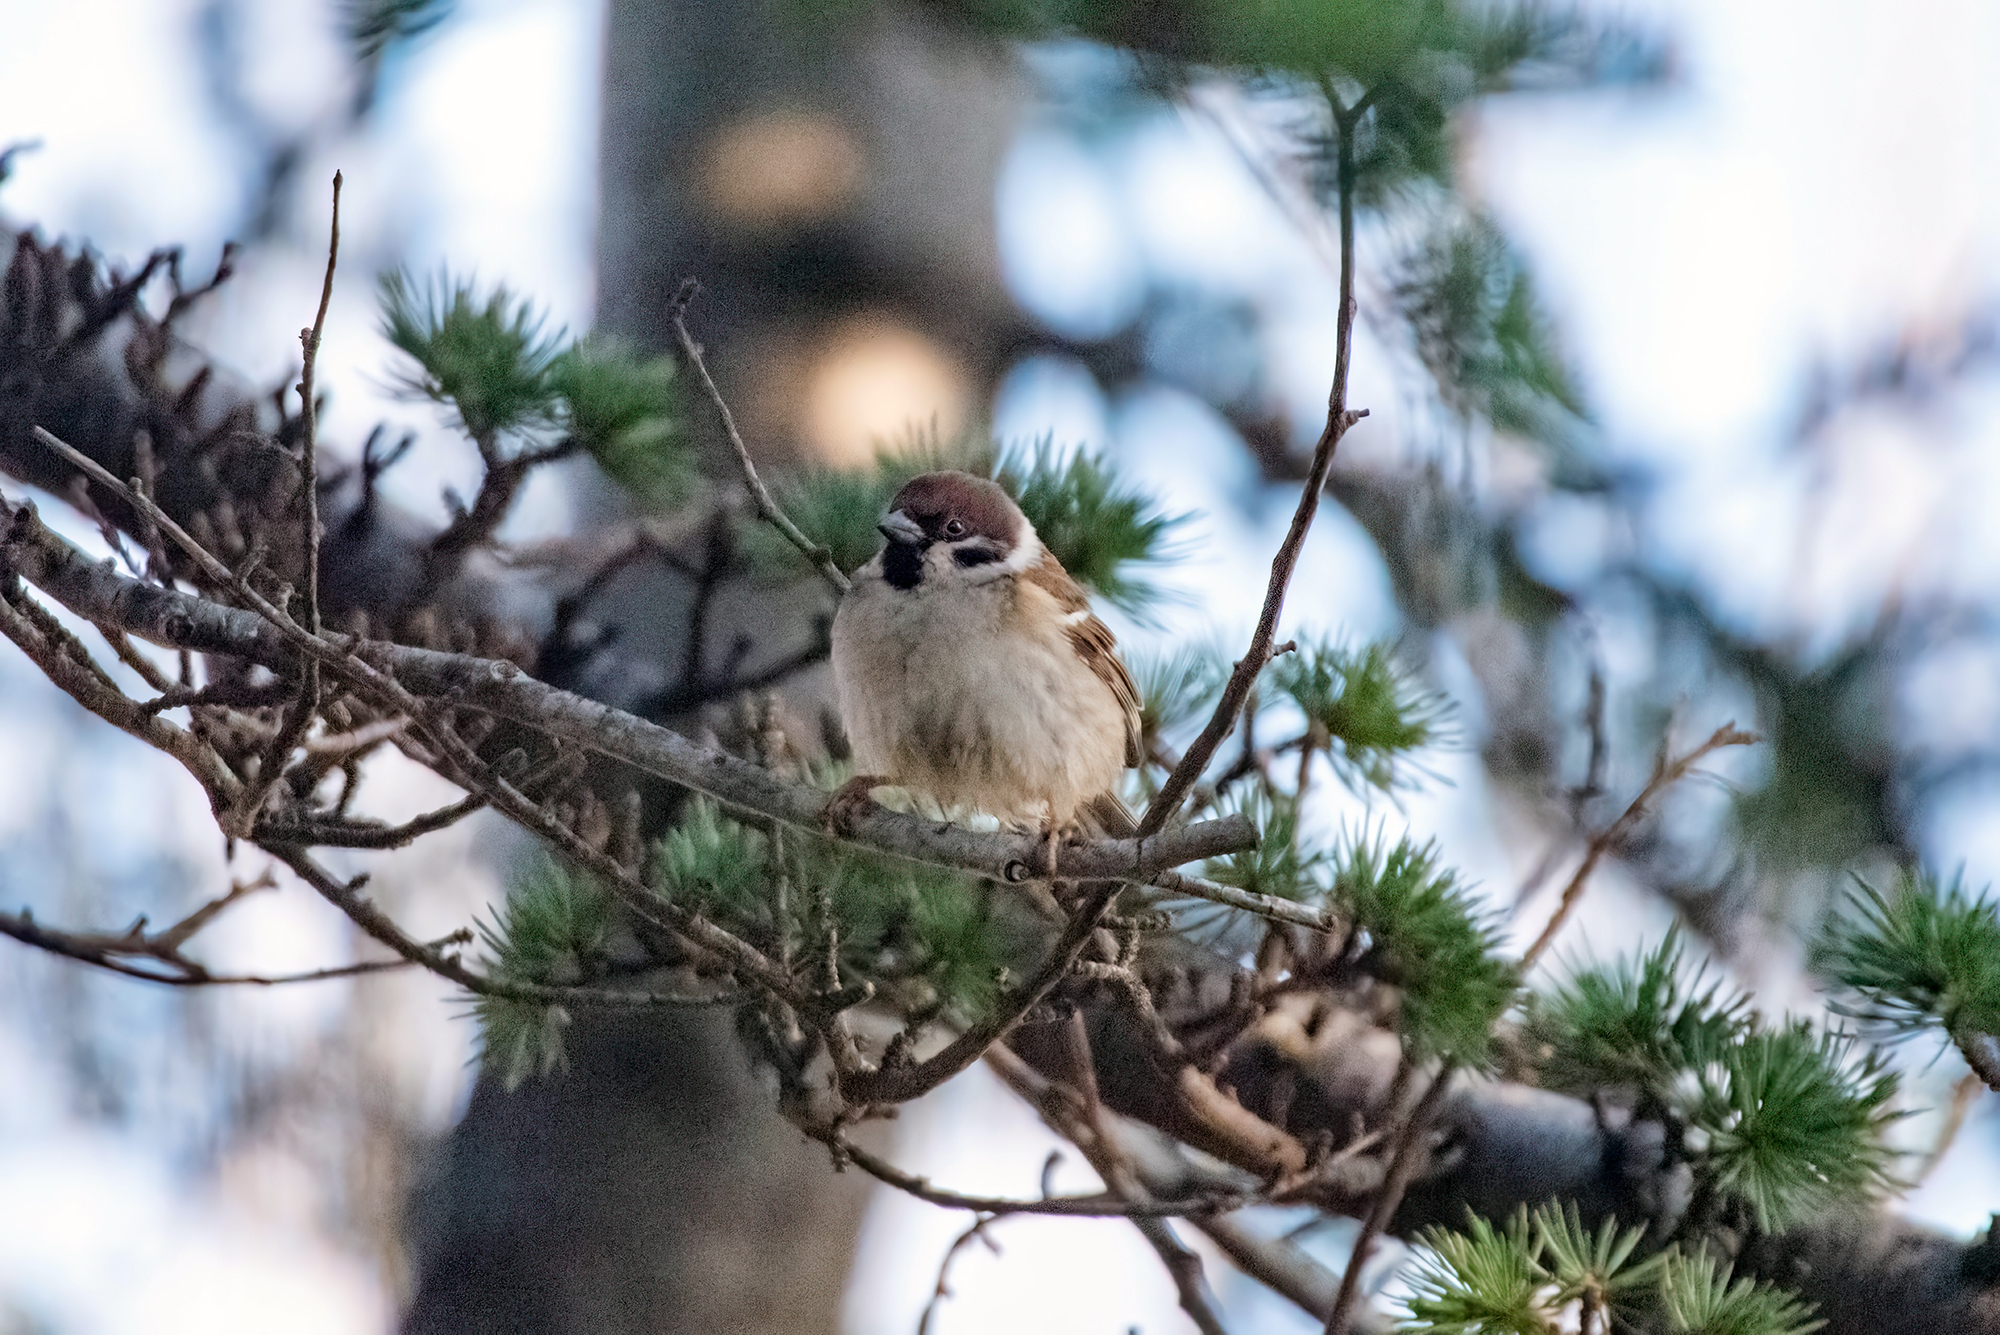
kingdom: Animalia
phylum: Chordata
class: Aves
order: Passeriformes
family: Passeridae
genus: Passer
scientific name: Passer montanus
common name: Eurasian tree sparrow
